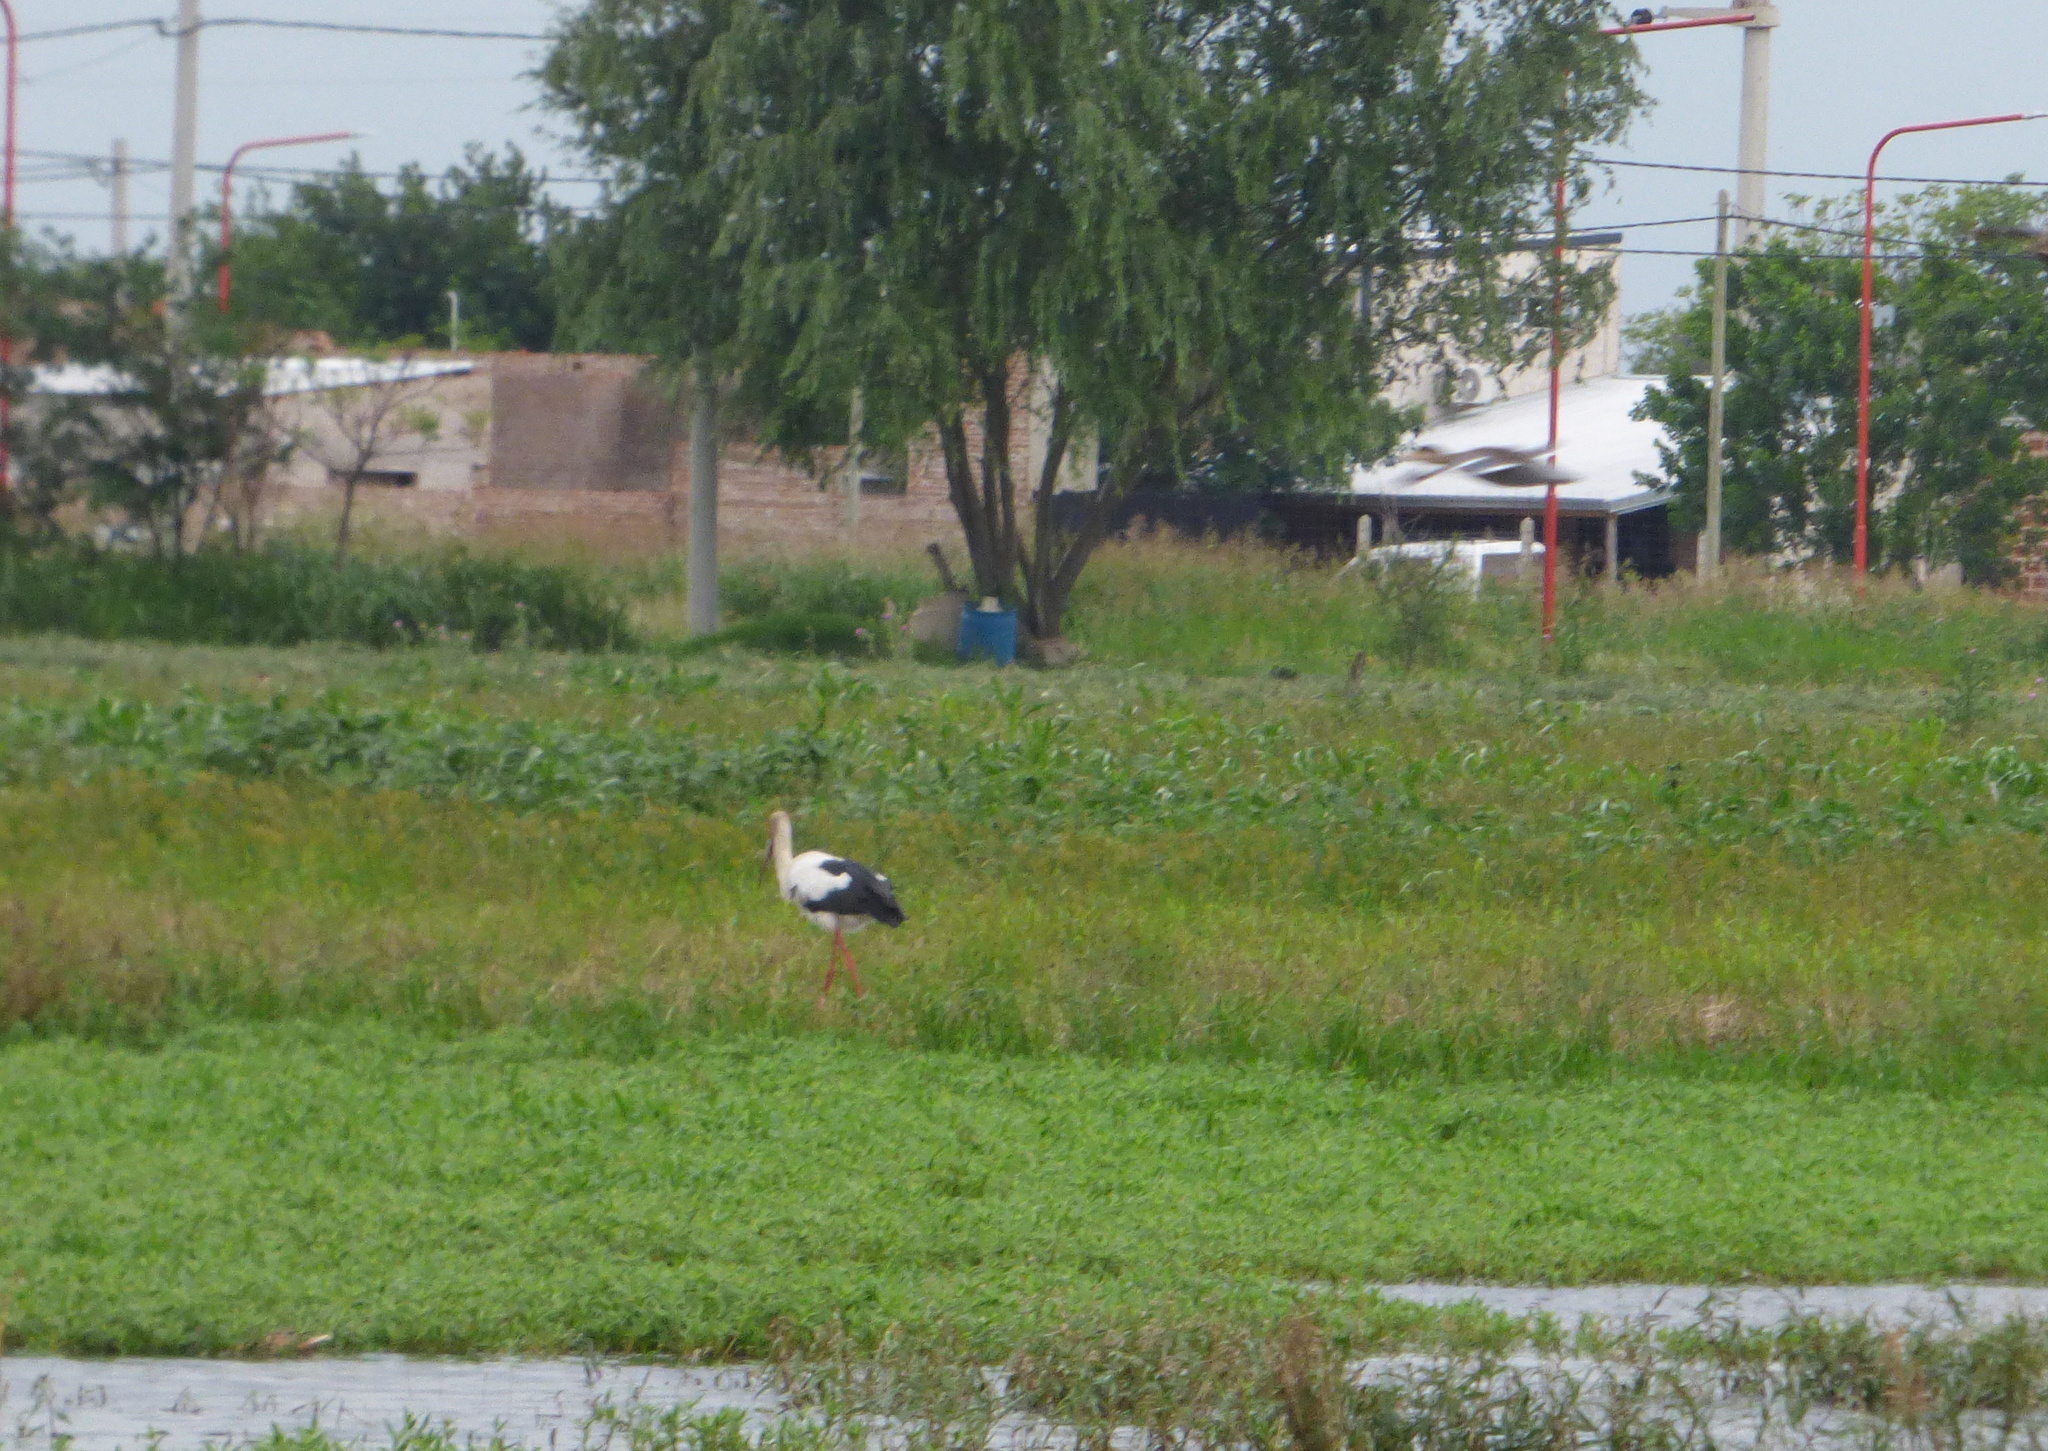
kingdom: Animalia
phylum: Chordata
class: Aves
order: Ciconiiformes
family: Ciconiidae
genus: Ciconia
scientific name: Ciconia maguari
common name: Maguari stork
